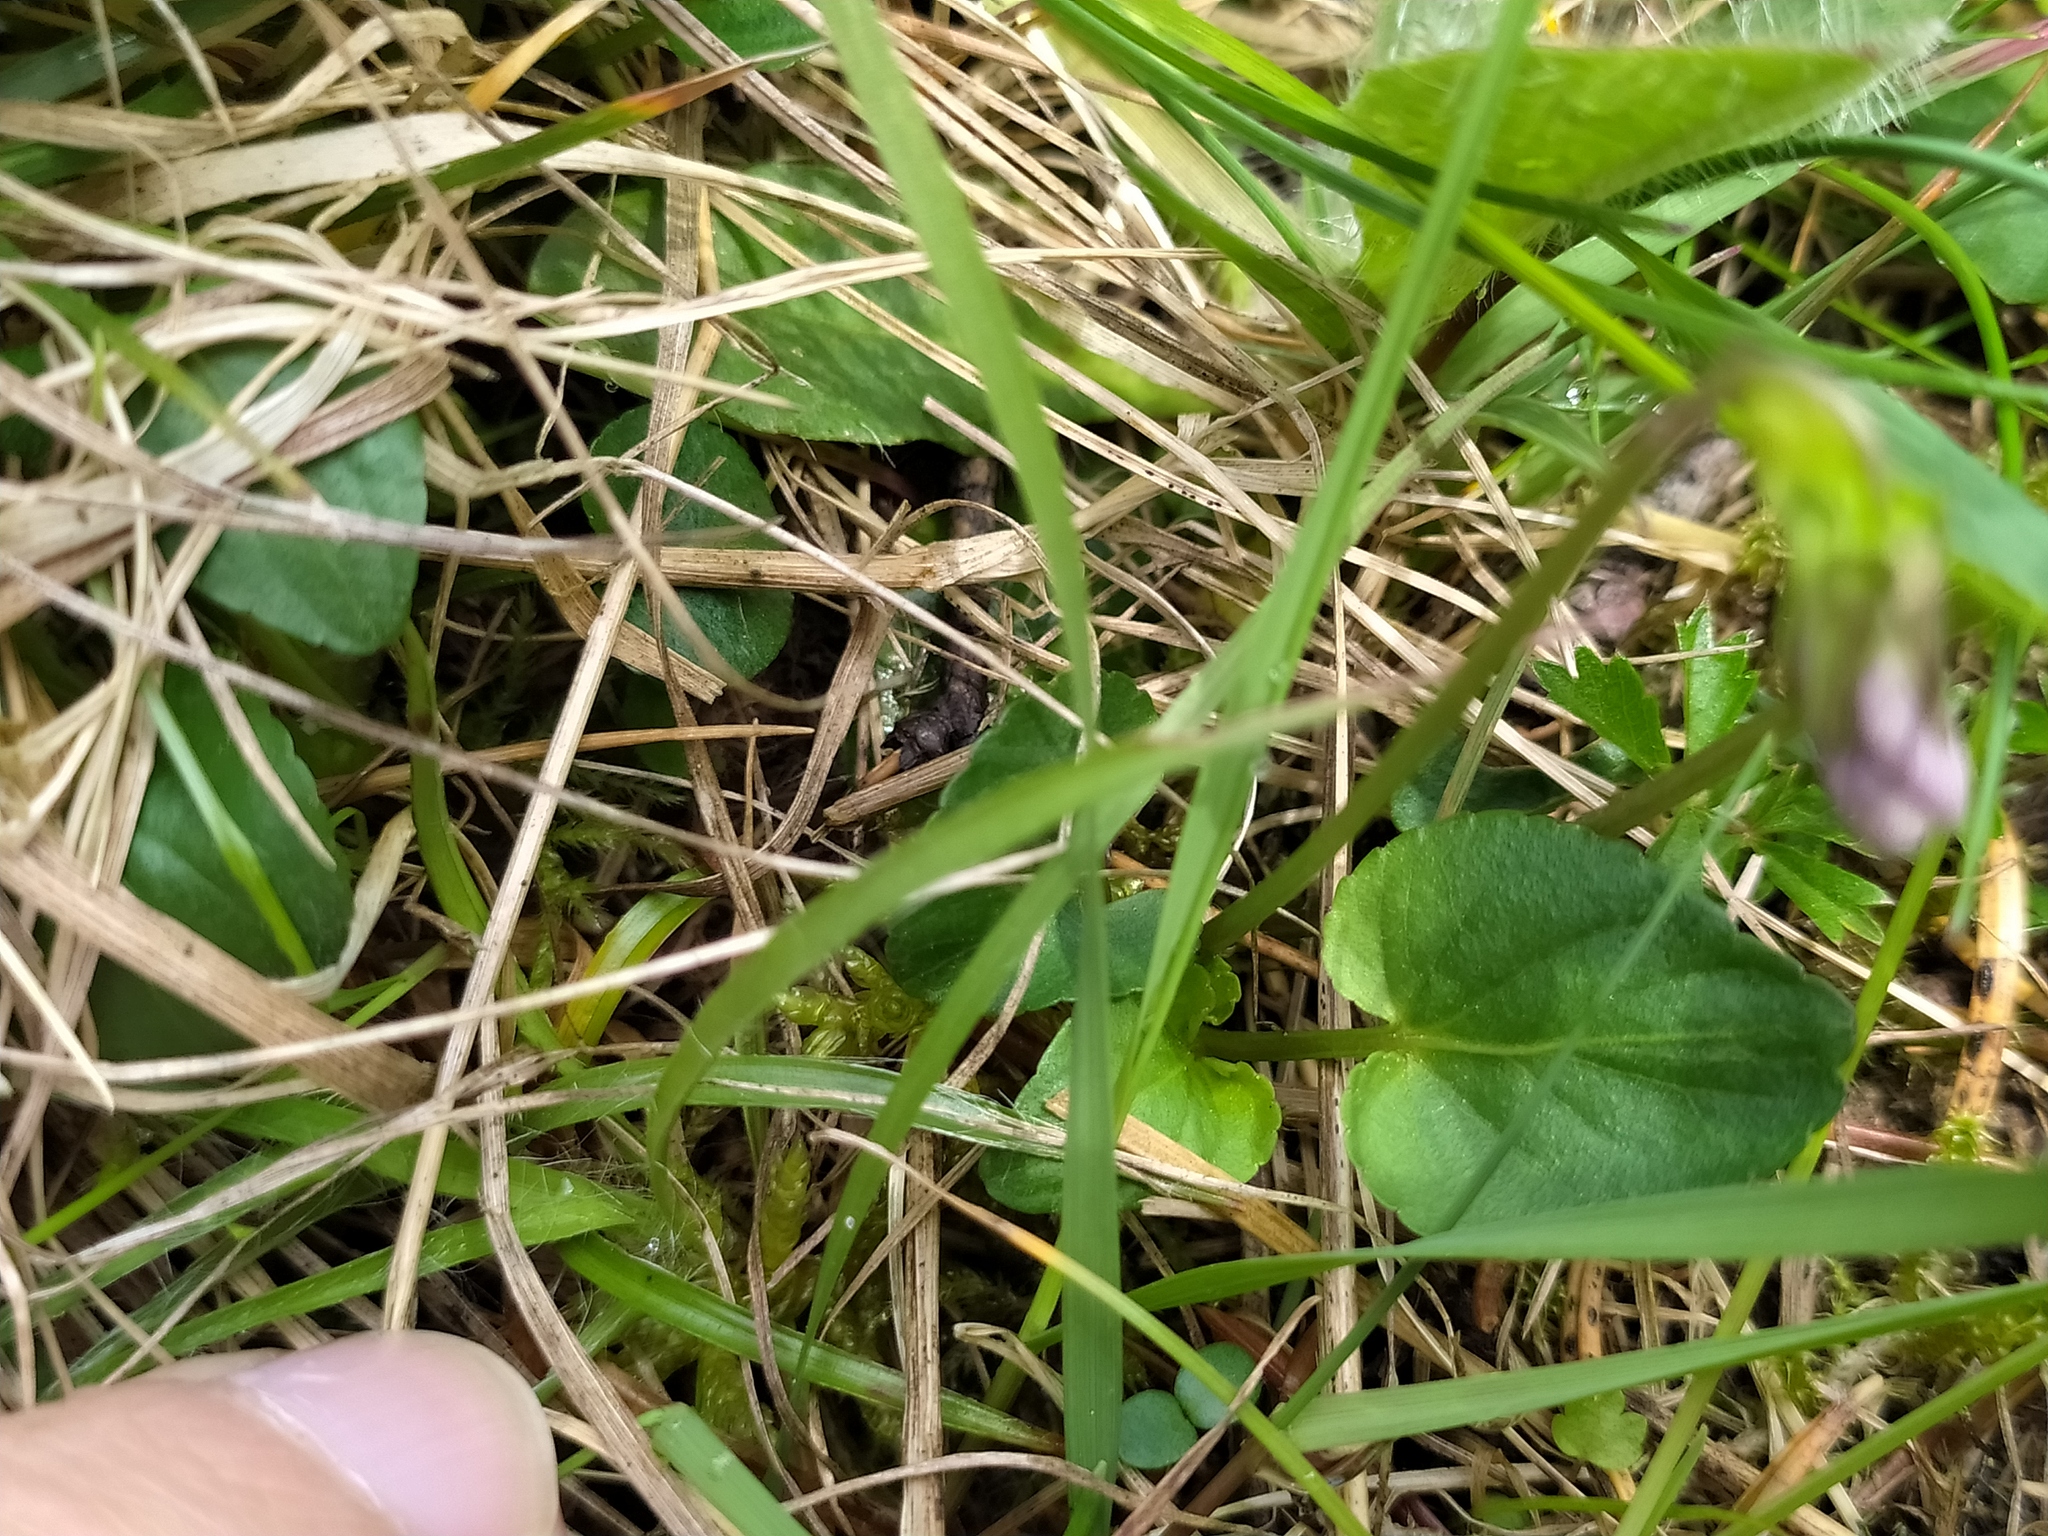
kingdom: Plantae
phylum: Tracheophyta
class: Magnoliopsida
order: Malpighiales
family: Violaceae
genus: Viola
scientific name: Viola canina
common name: Heath dog-violet
